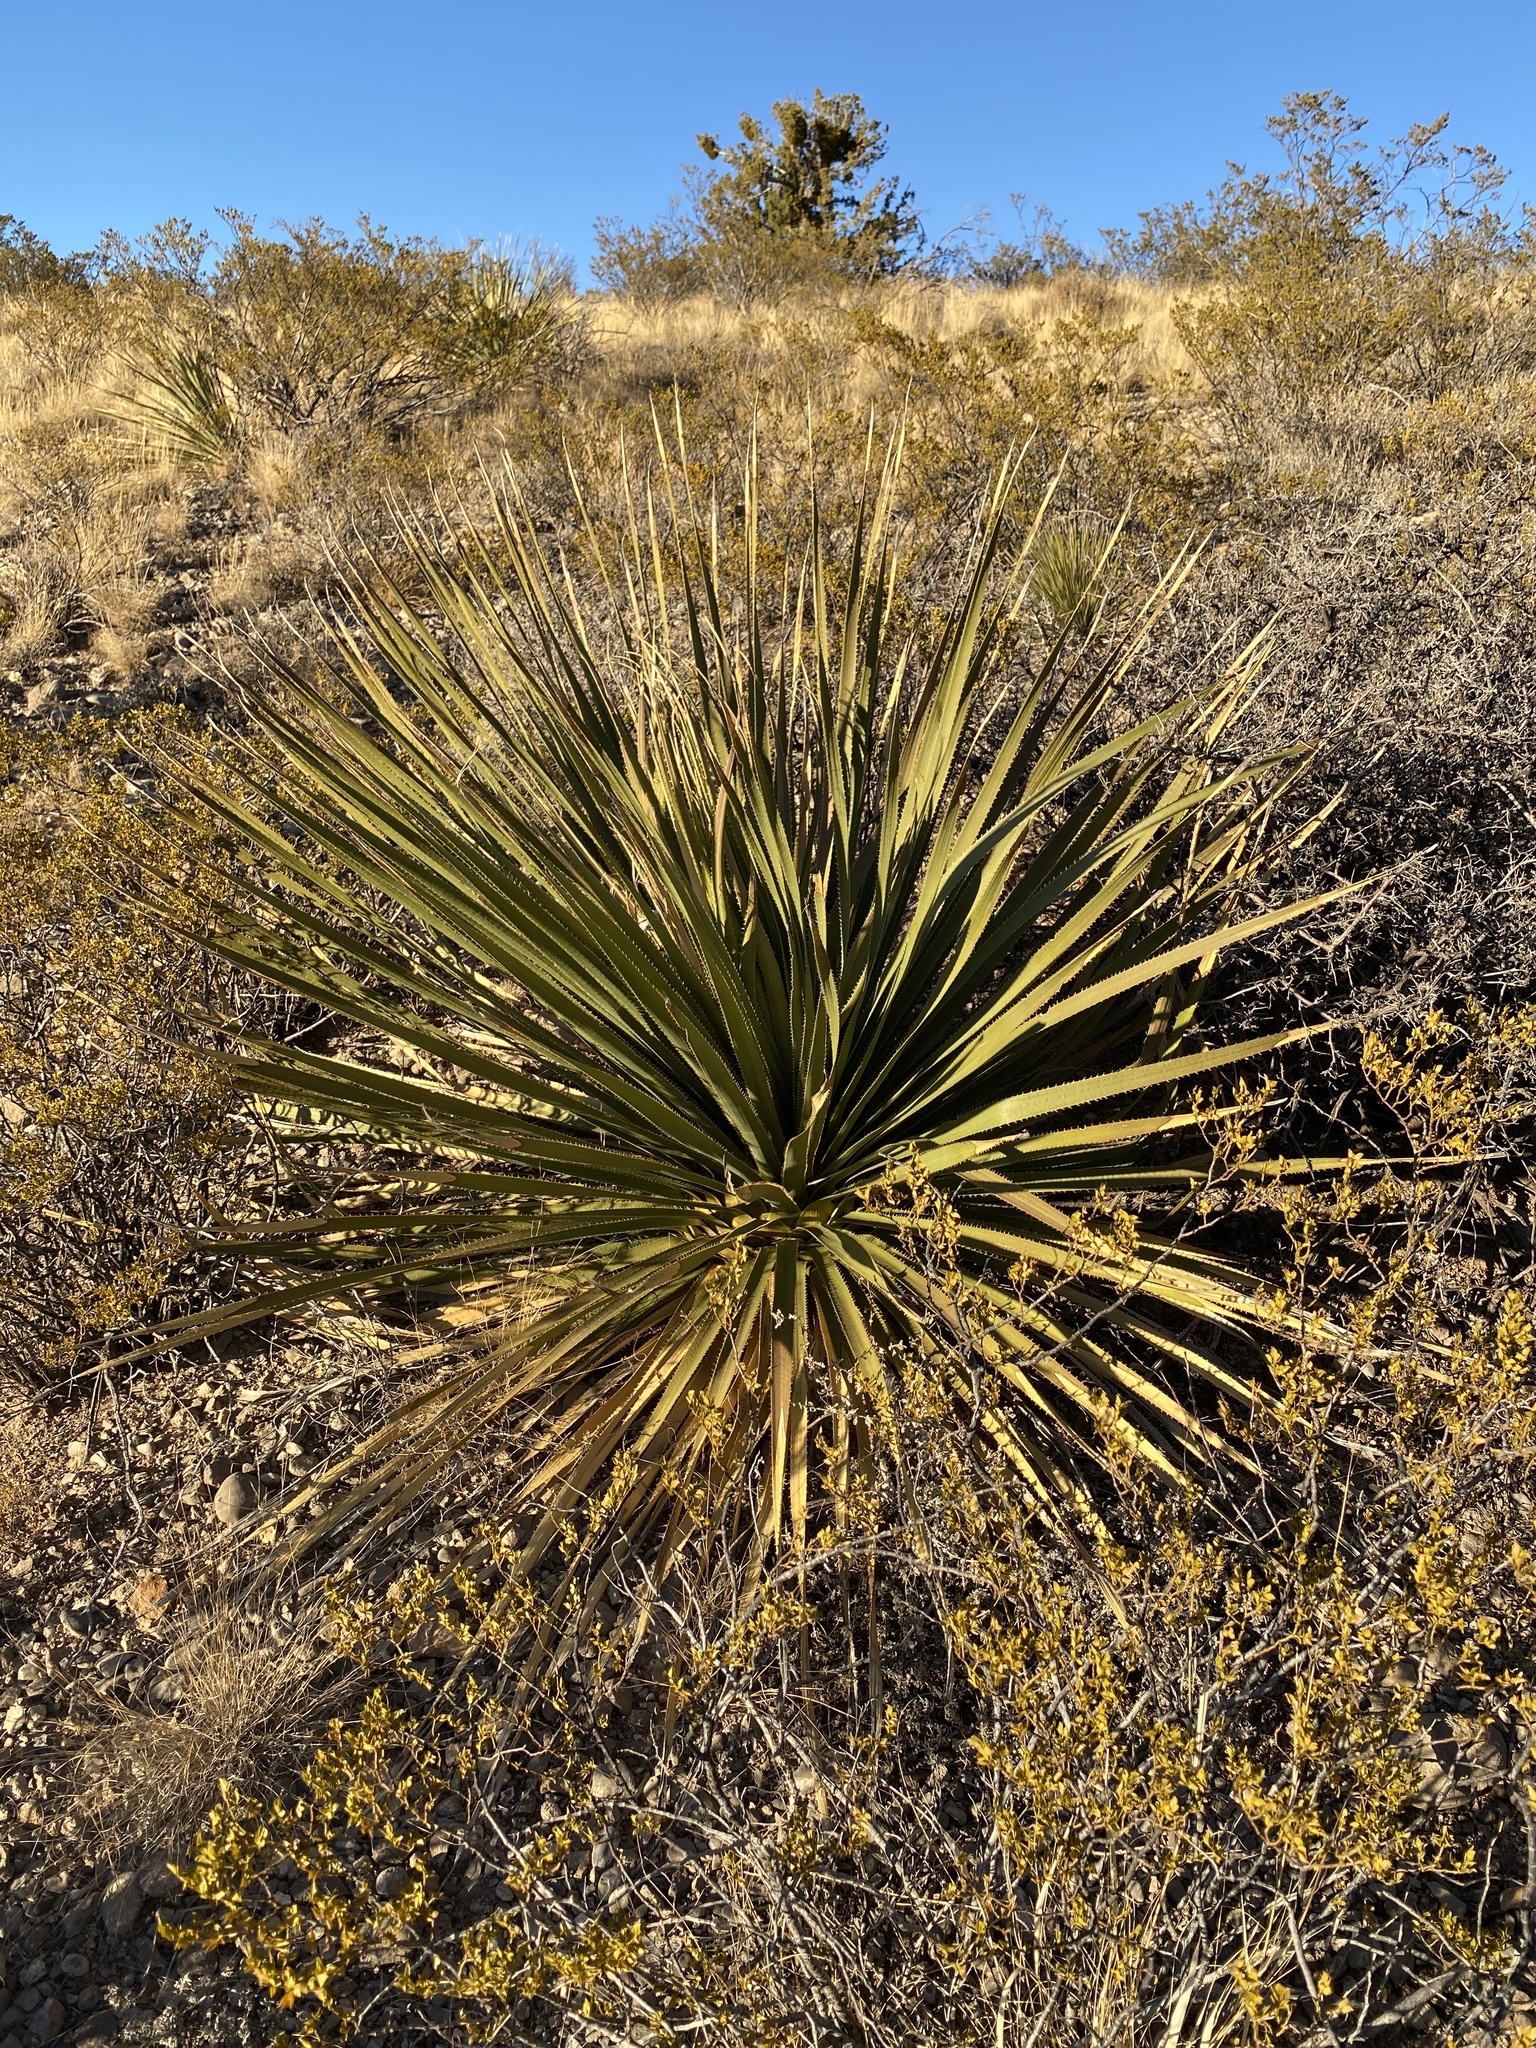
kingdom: Plantae
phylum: Tracheophyta
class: Liliopsida
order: Asparagales
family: Asparagaceae
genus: Dasylirion
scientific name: Dasylirion wheeleri
